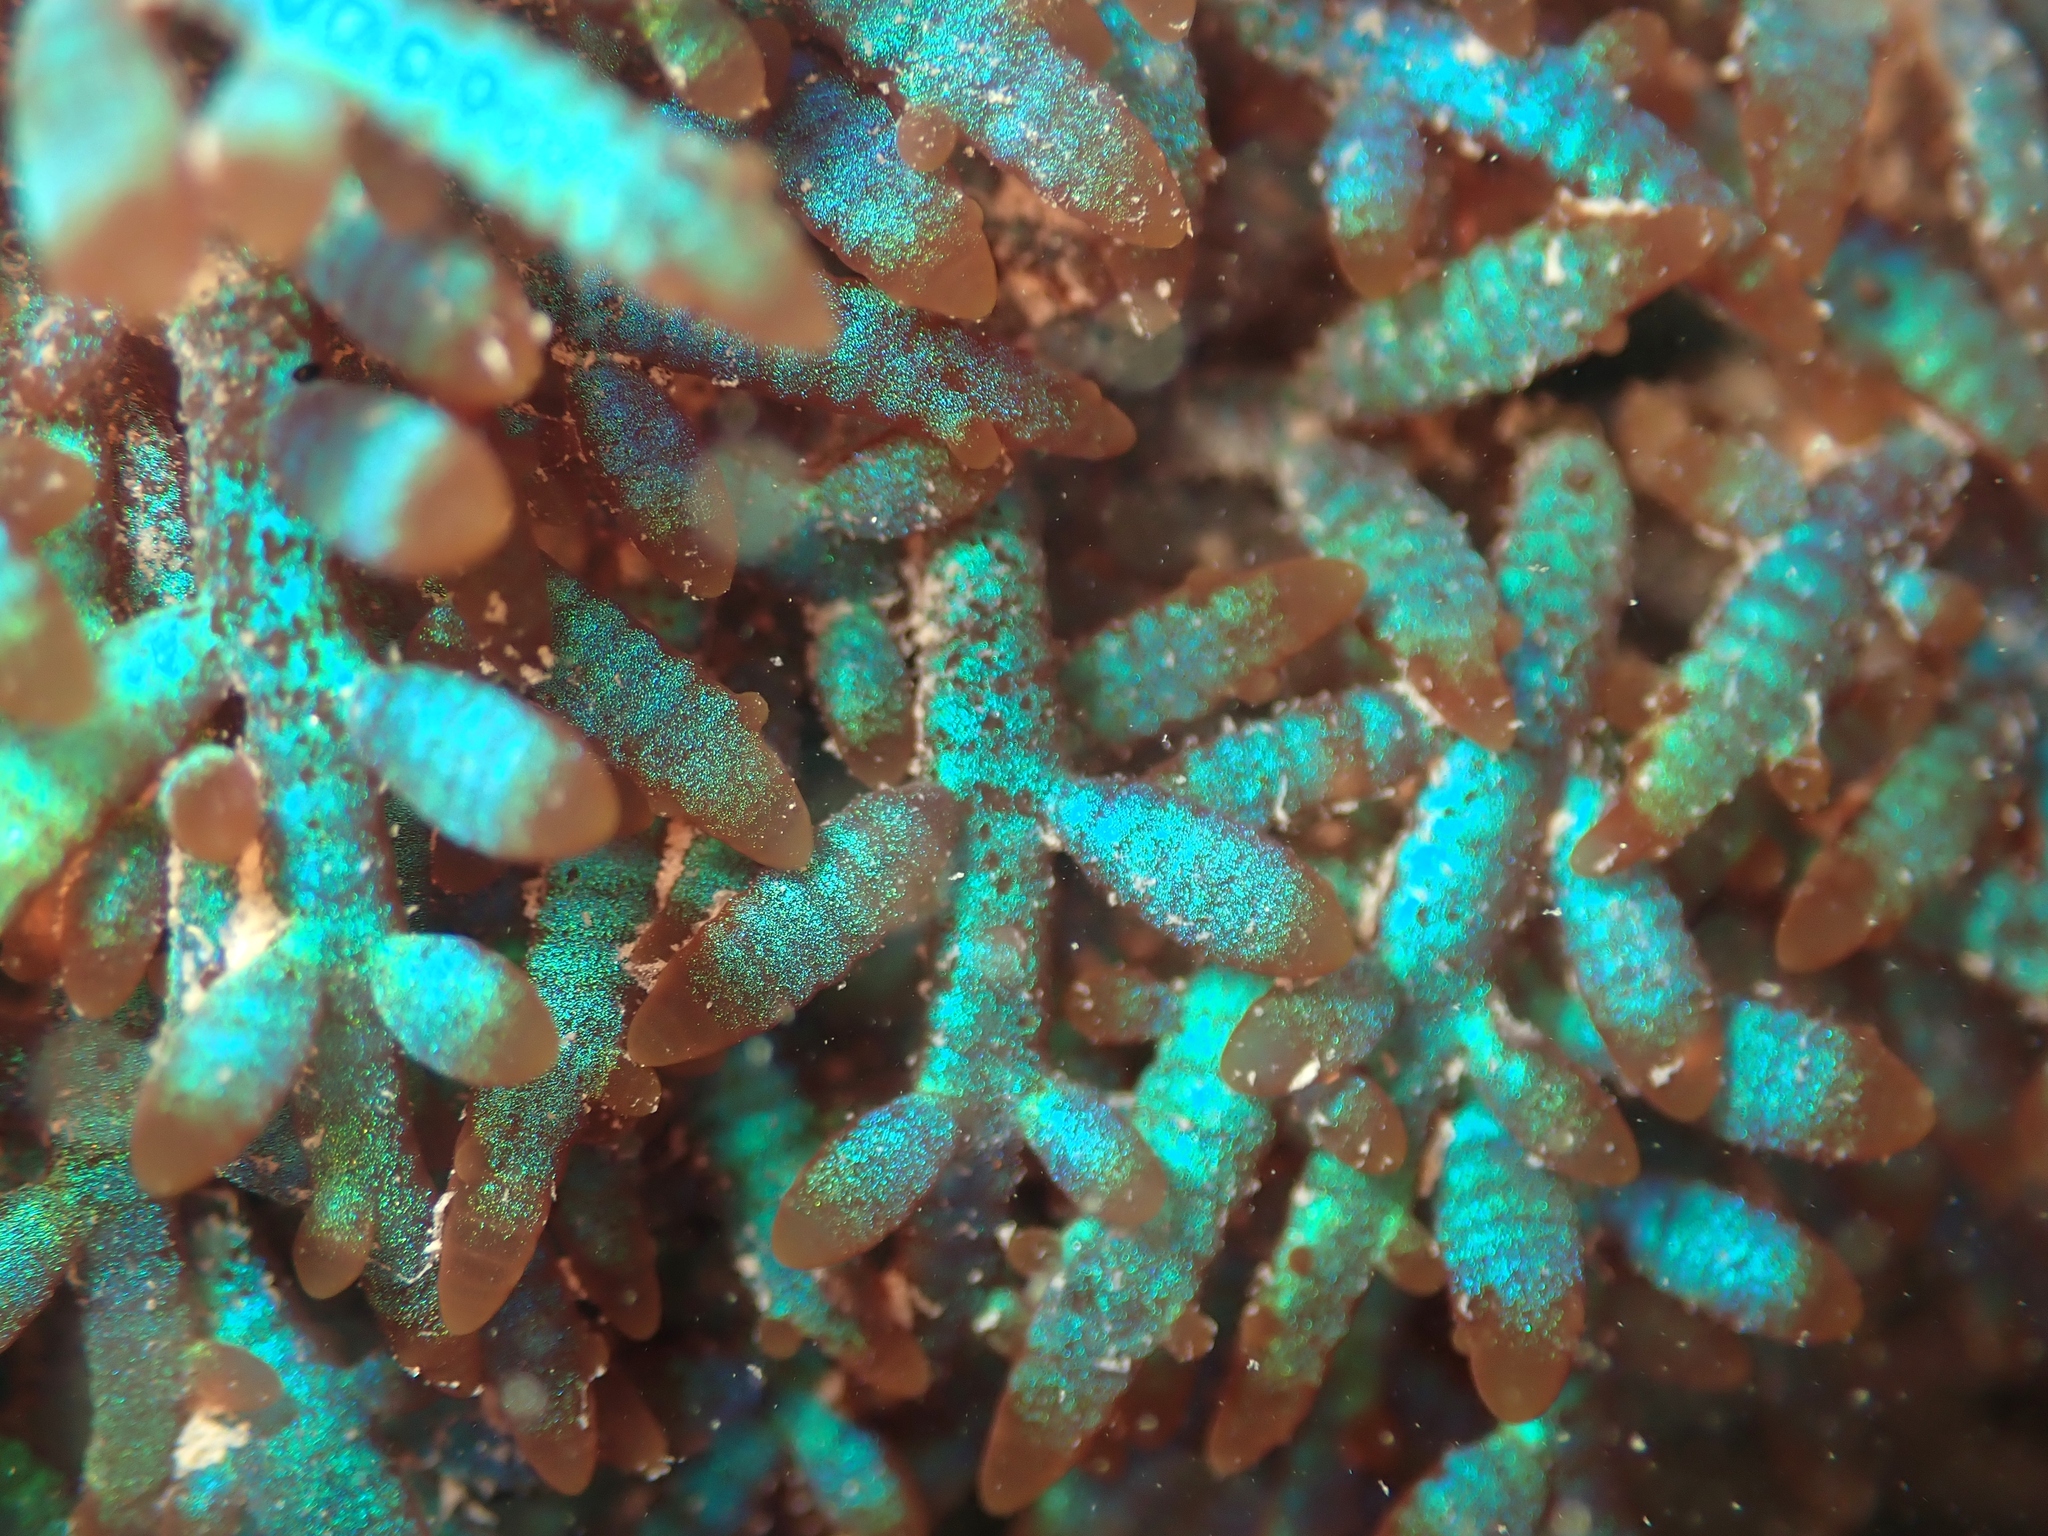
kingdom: Plantae
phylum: Rhodophyta
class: Florideophyceae
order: Rhodymeniales
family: Champiaceae
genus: Champia
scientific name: Champia laingii
